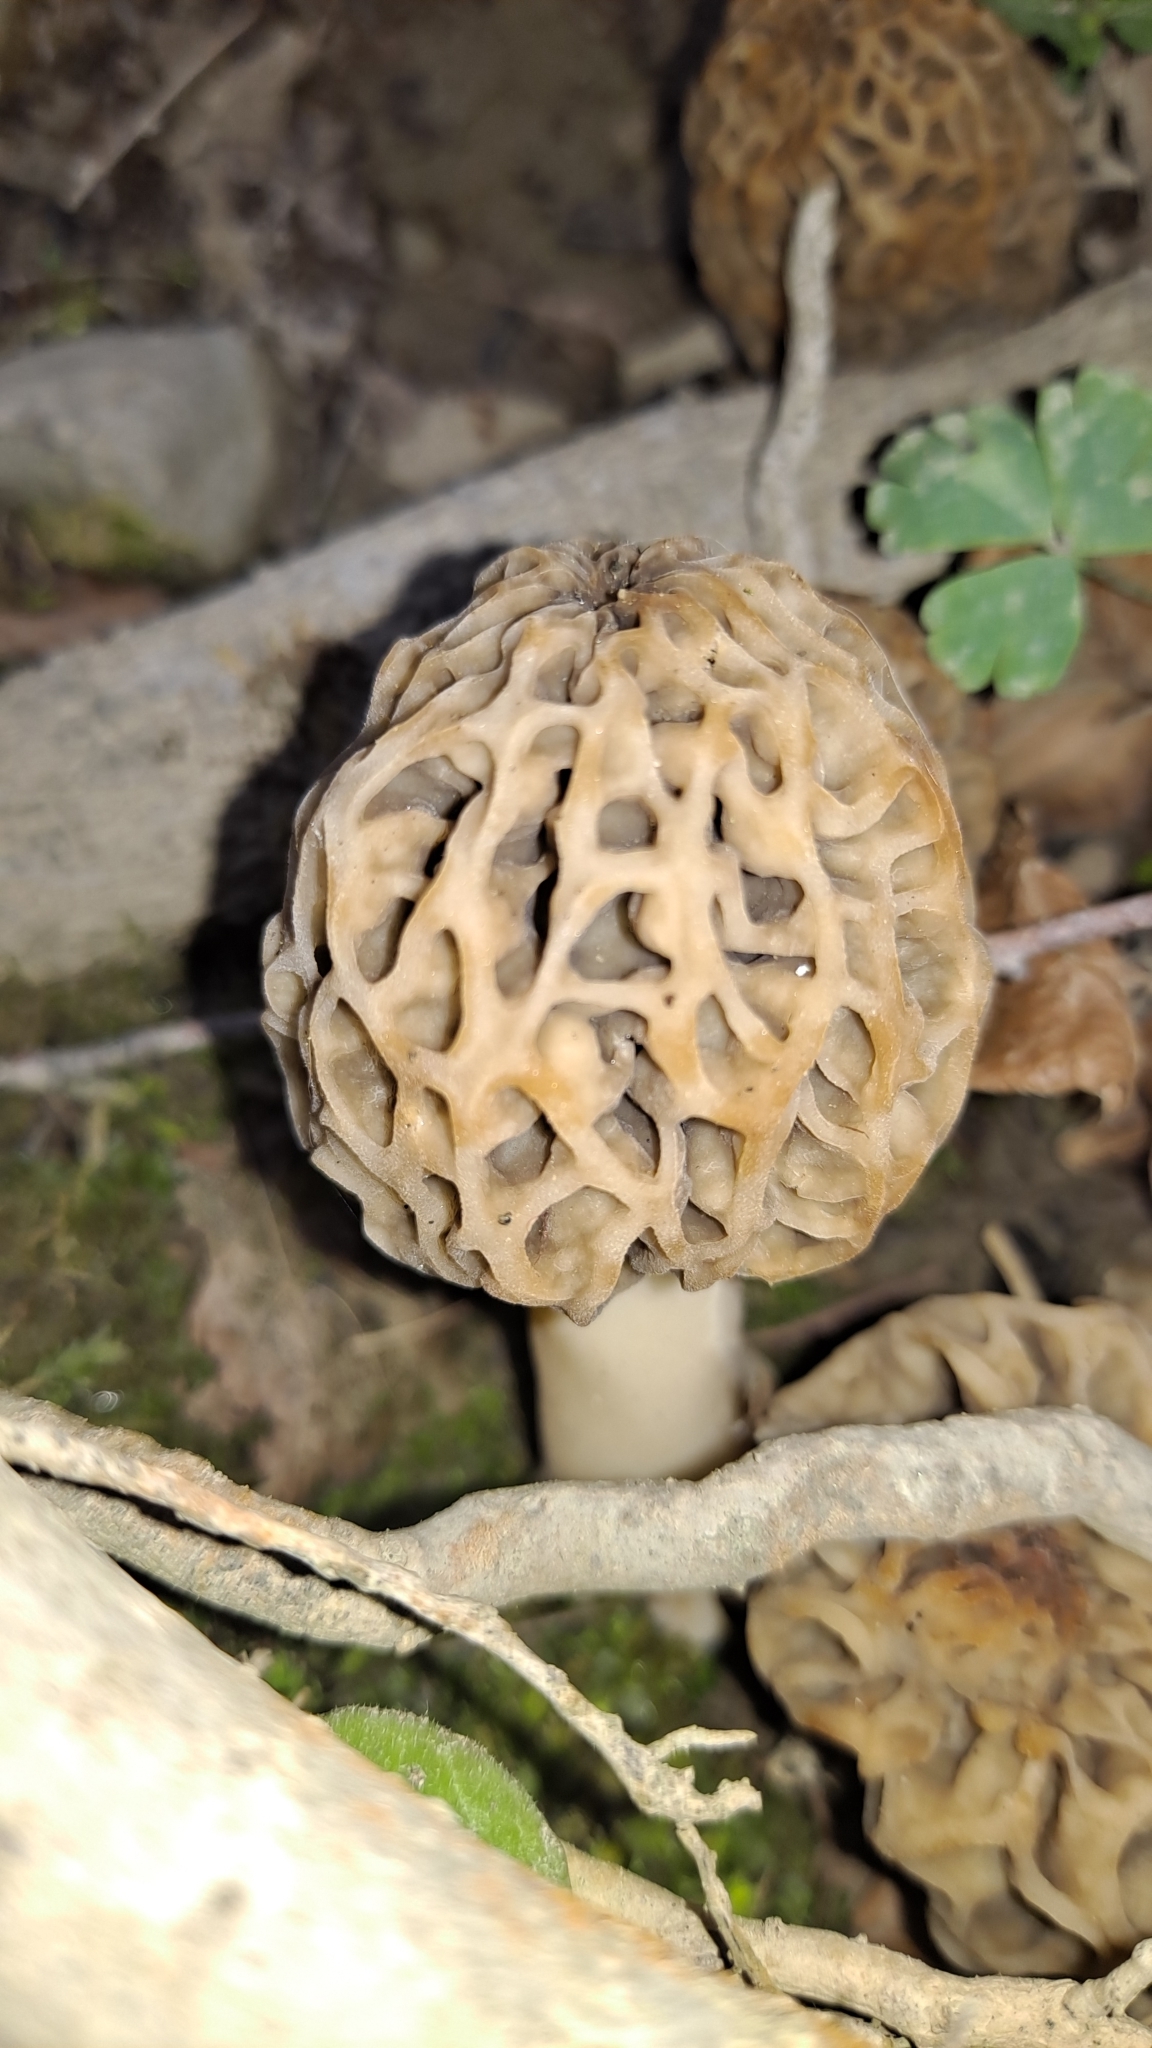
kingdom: Fungi
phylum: Ascomycota
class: Pezizomycetes
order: Pezizales
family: Morchellaceae
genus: Morchella
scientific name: Morchella esculenta
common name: Morel
